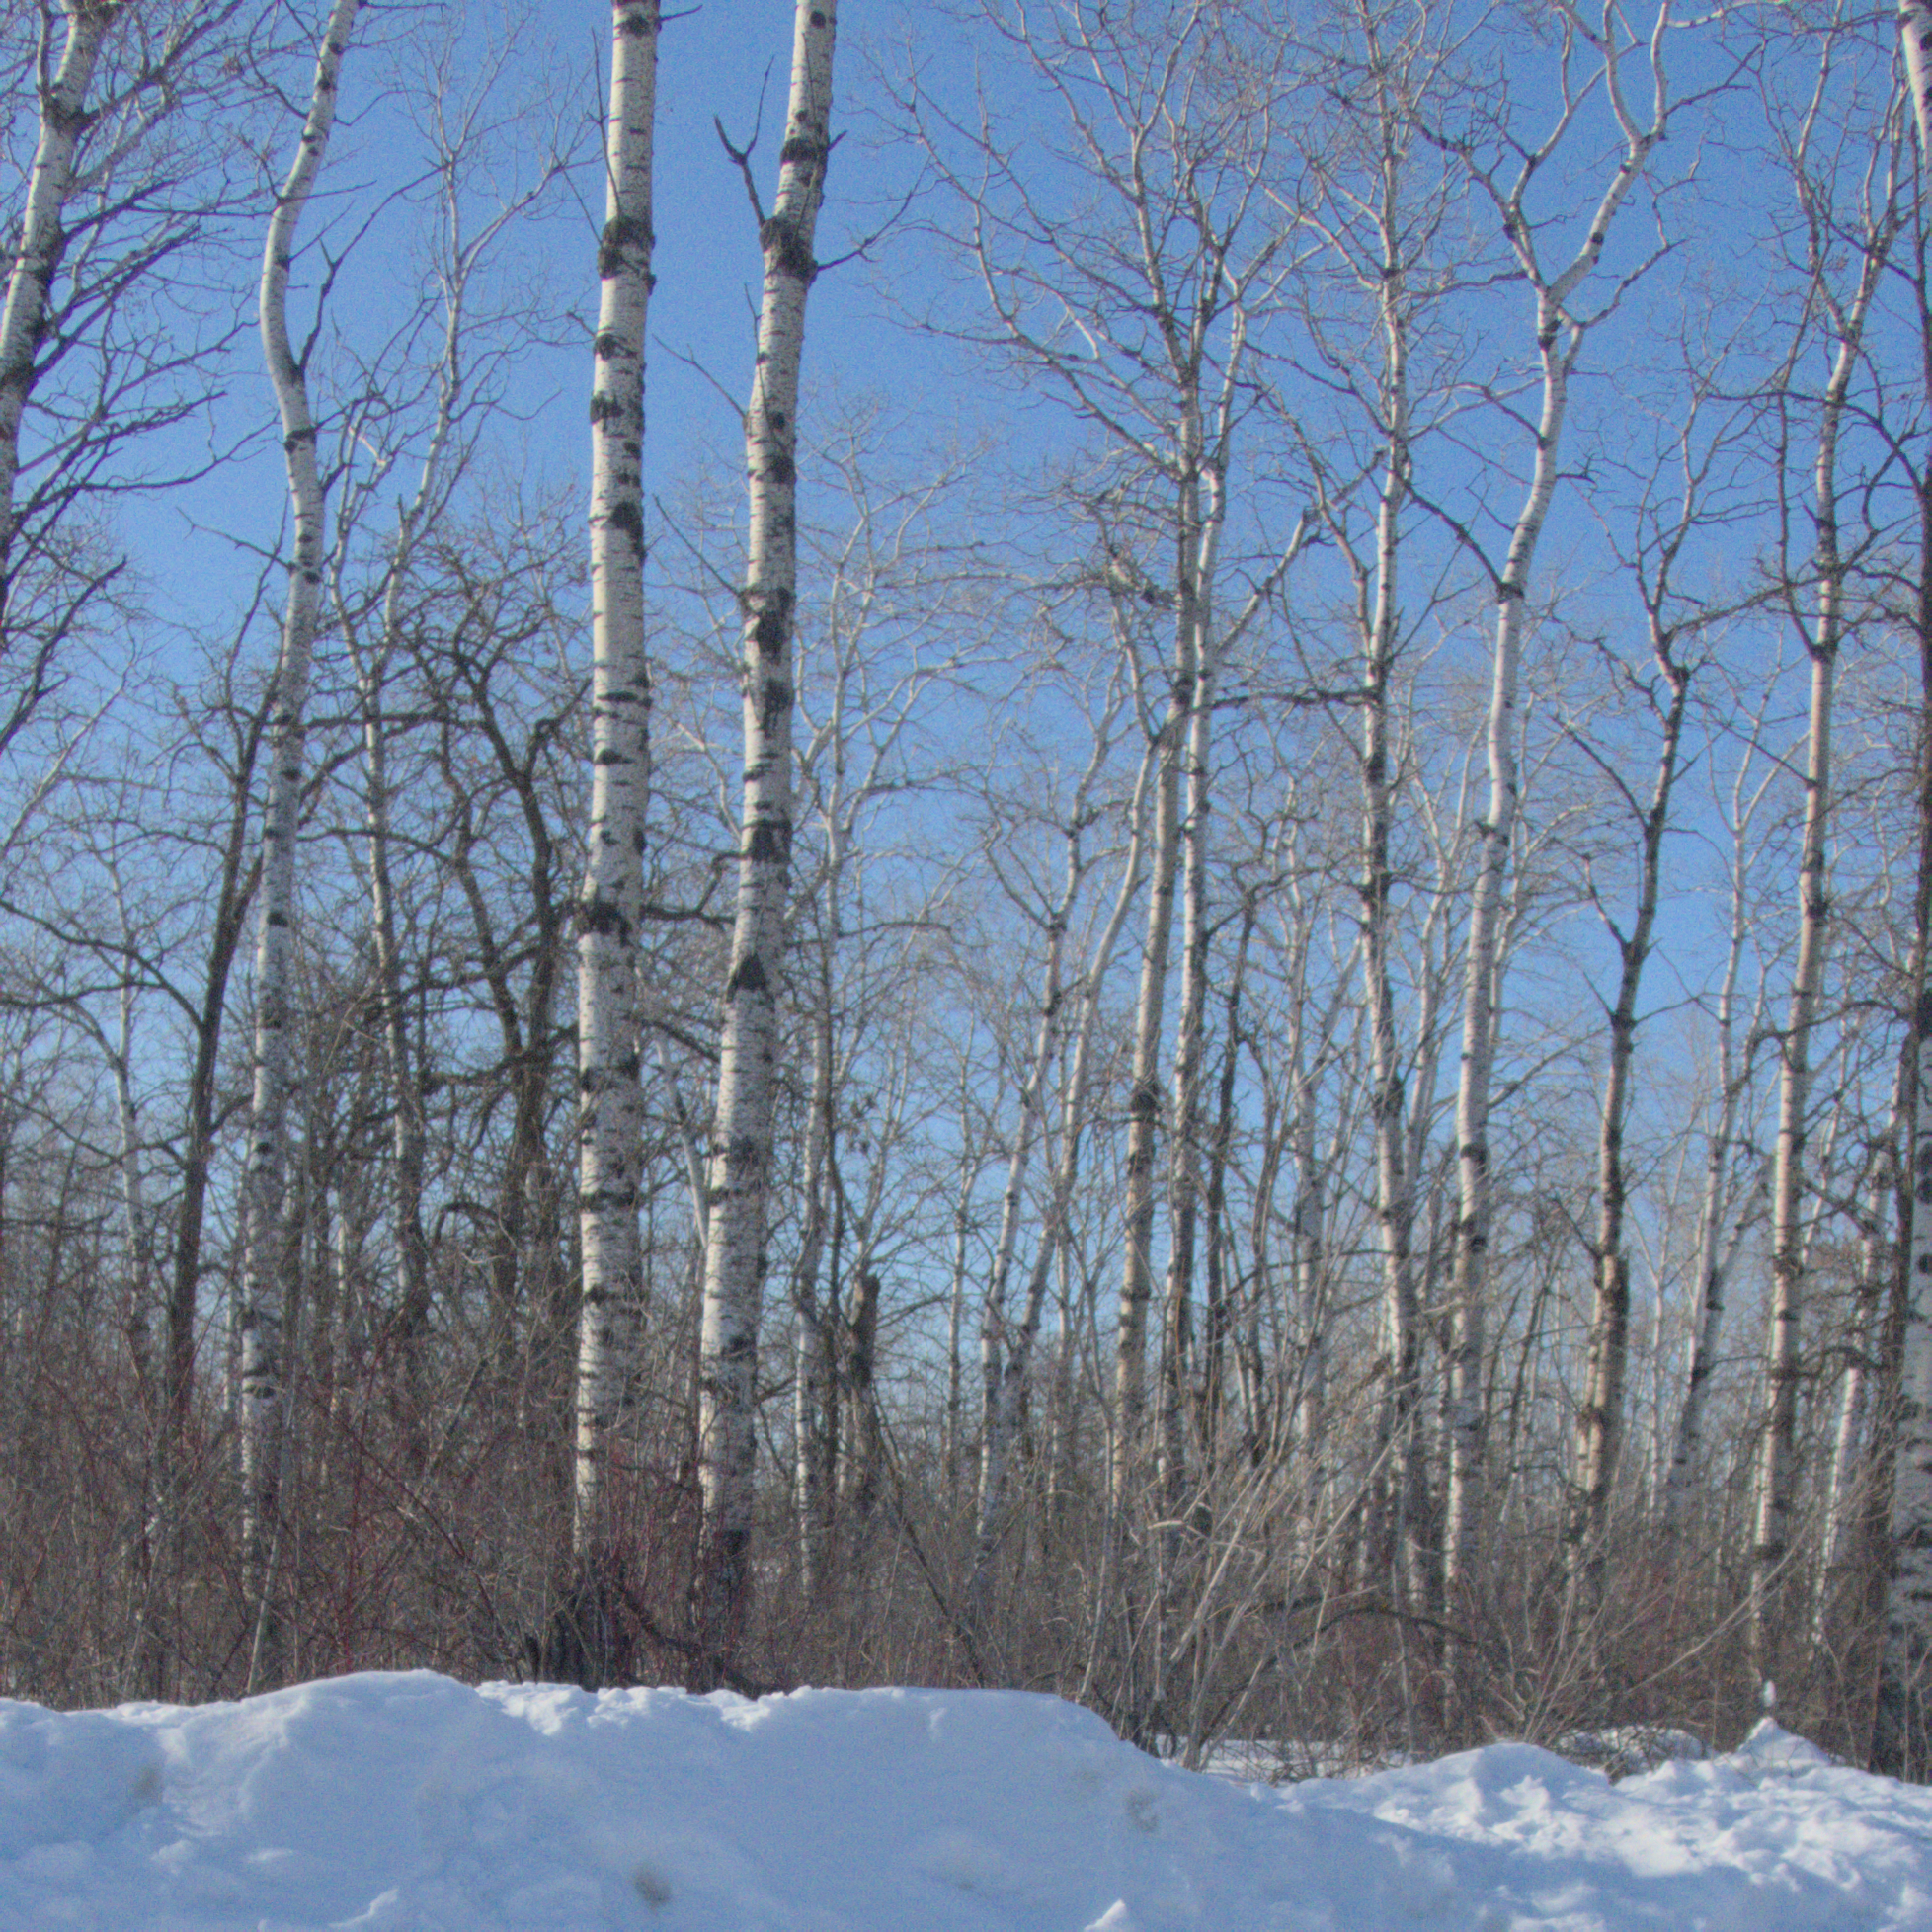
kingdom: Plantae
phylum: Tracheophyta
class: Magnoliopsida
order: Malpighiales
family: Salicaceae
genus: Populus
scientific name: Populus tremuloides
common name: Quaking aspen
